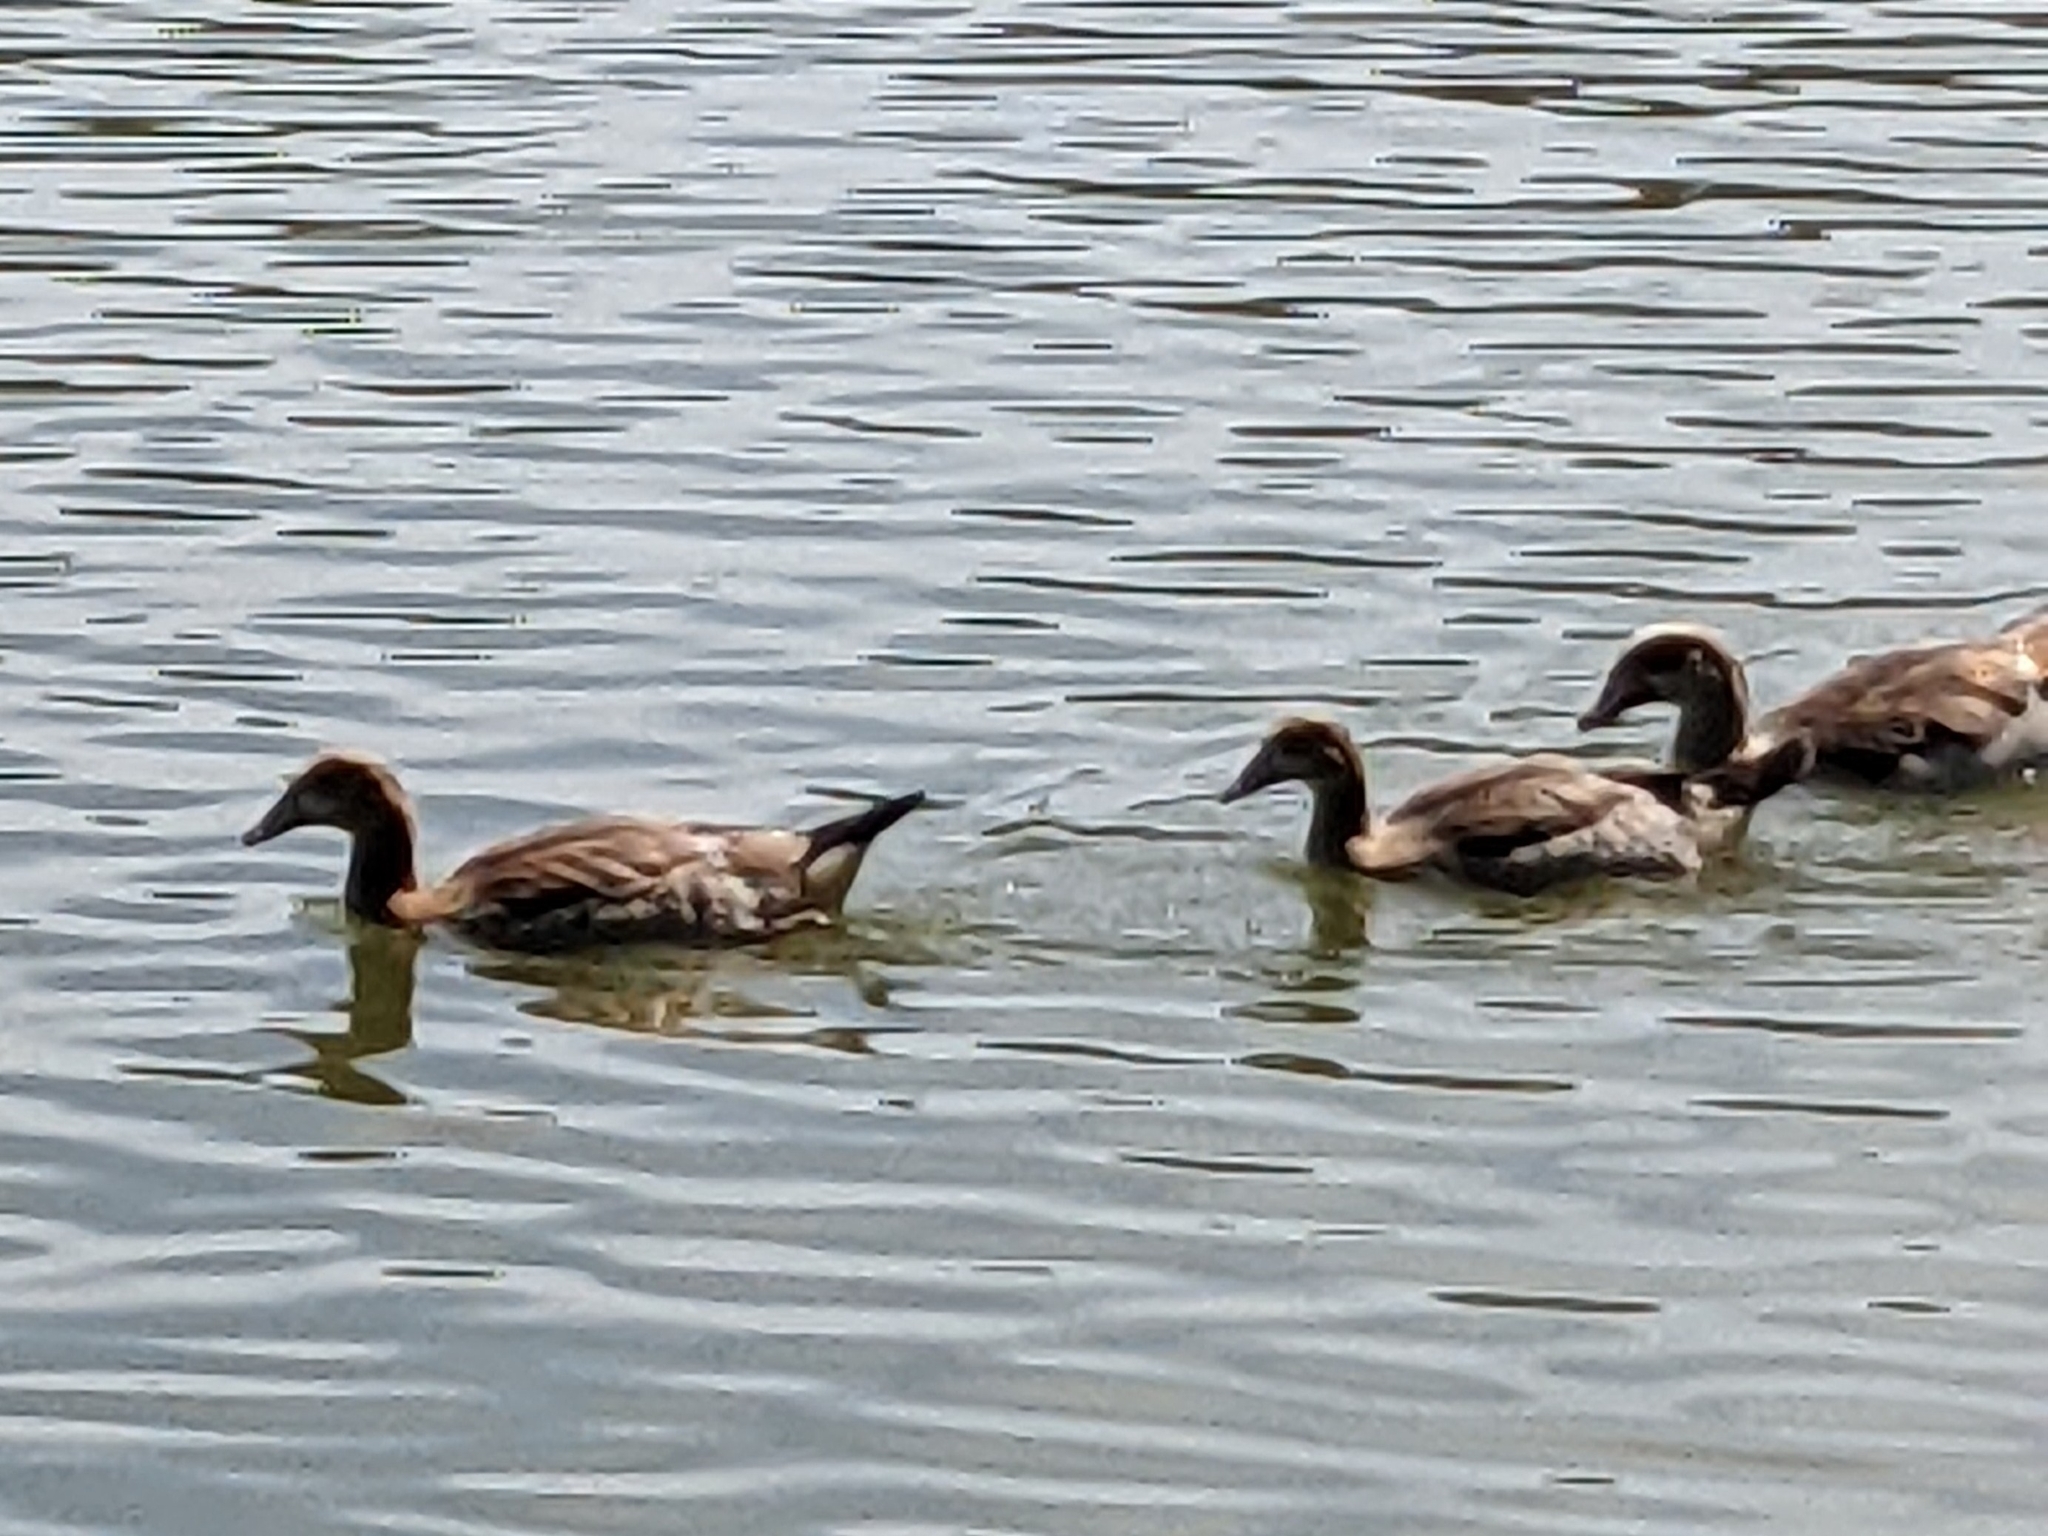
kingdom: Animalia
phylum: Chordata
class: Aves
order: Anseriformes
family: Anatidae
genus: Alopochen
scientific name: Alopochen aegyptiaca
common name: Egyptian goose
